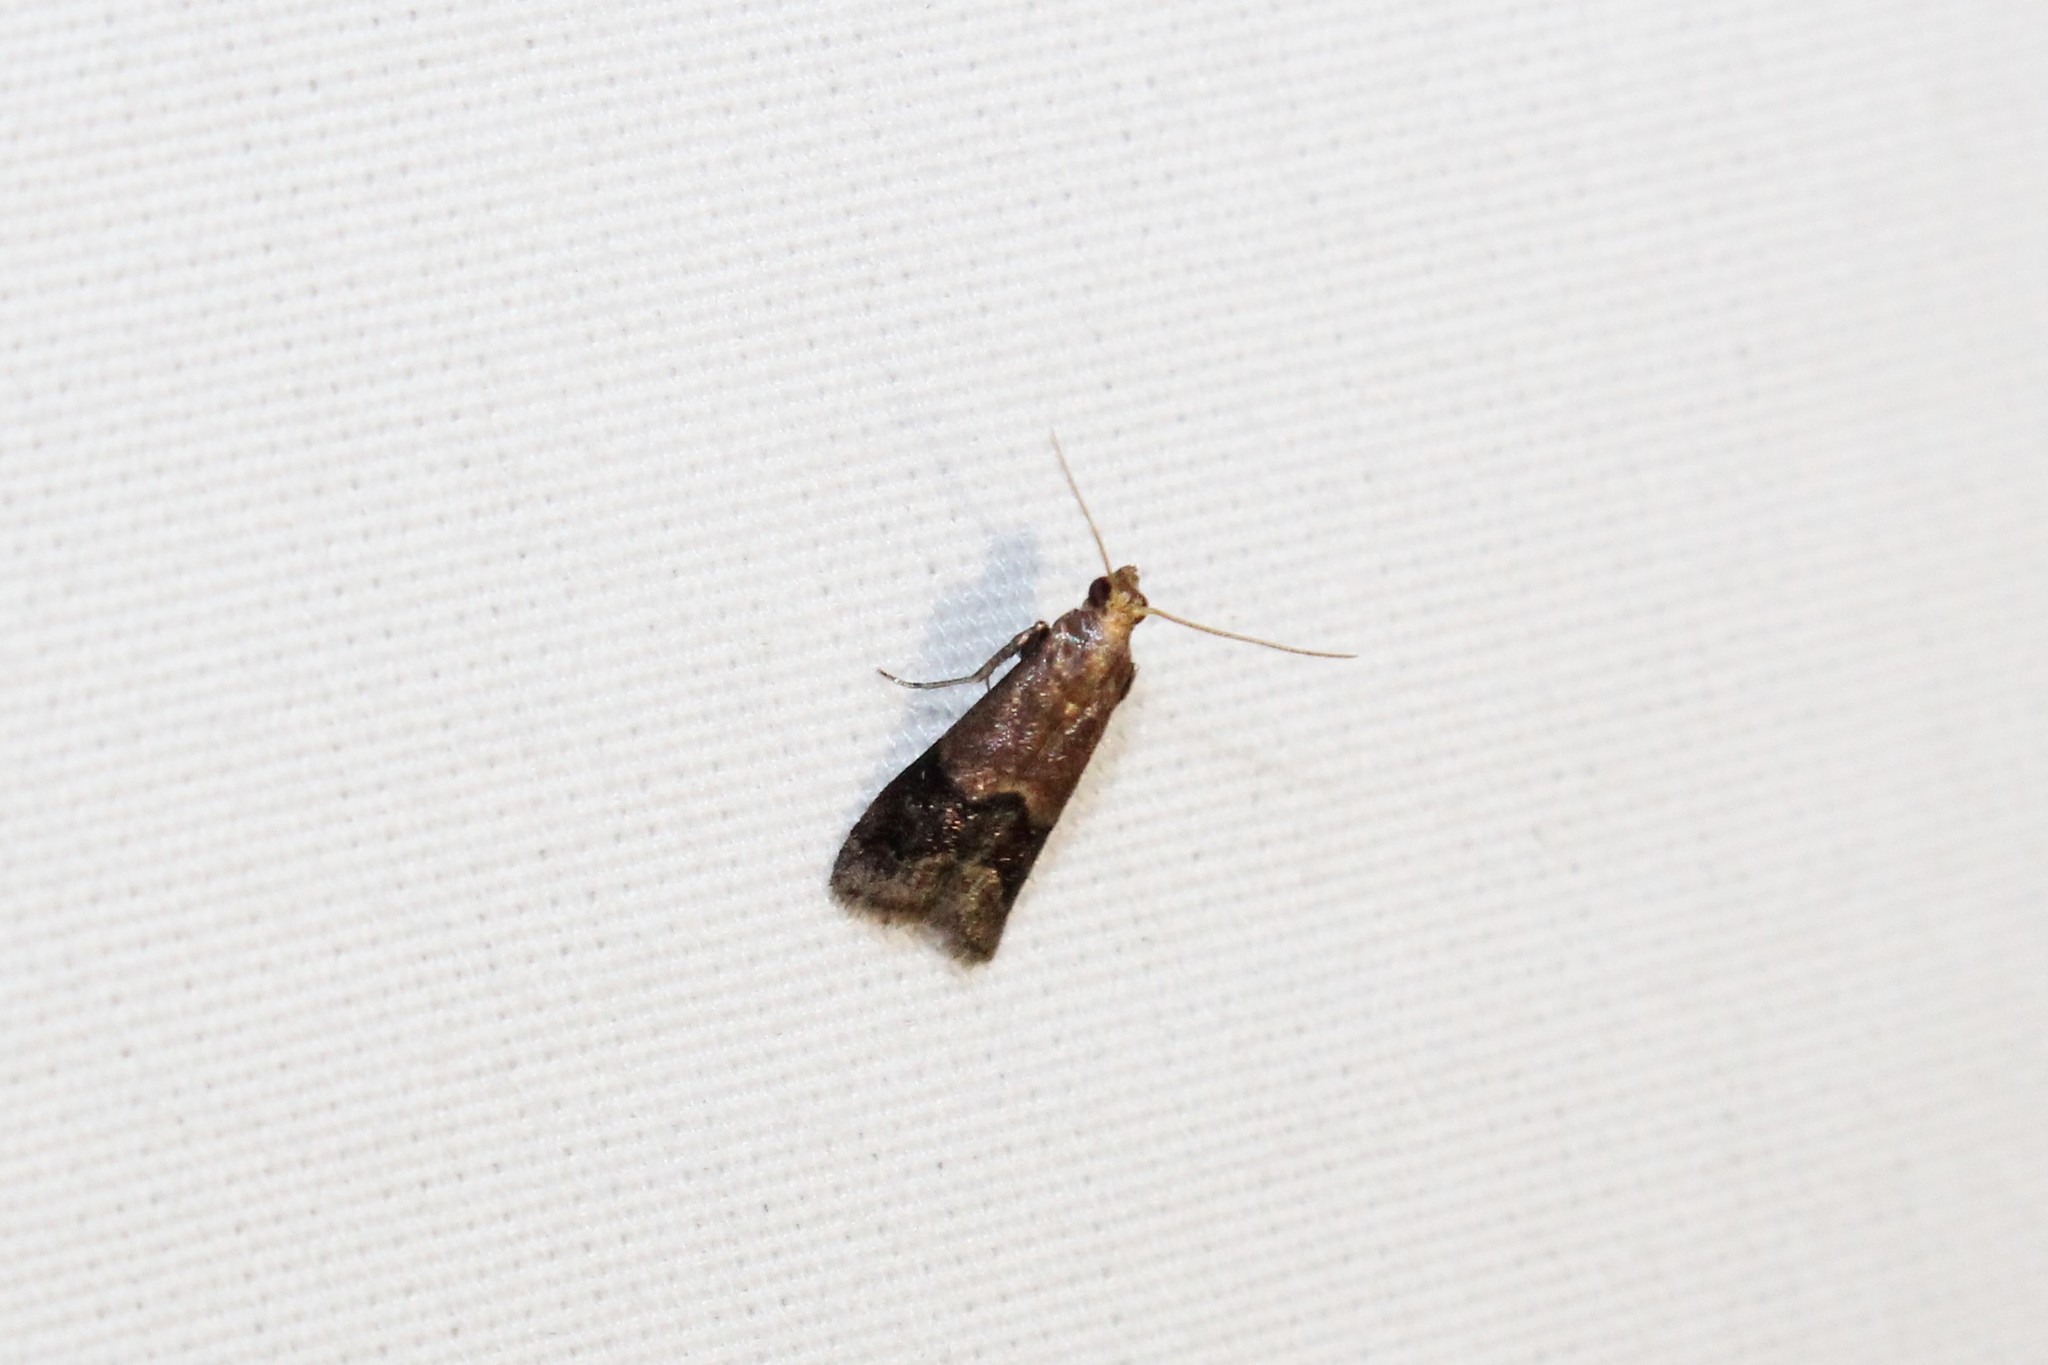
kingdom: Animalia
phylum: Arthropoda
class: Insecta
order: Lepidoptera
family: Pyralidae
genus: Eulogia
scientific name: Eulogia ochrifrontella
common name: Broad-banded eulogia moth
